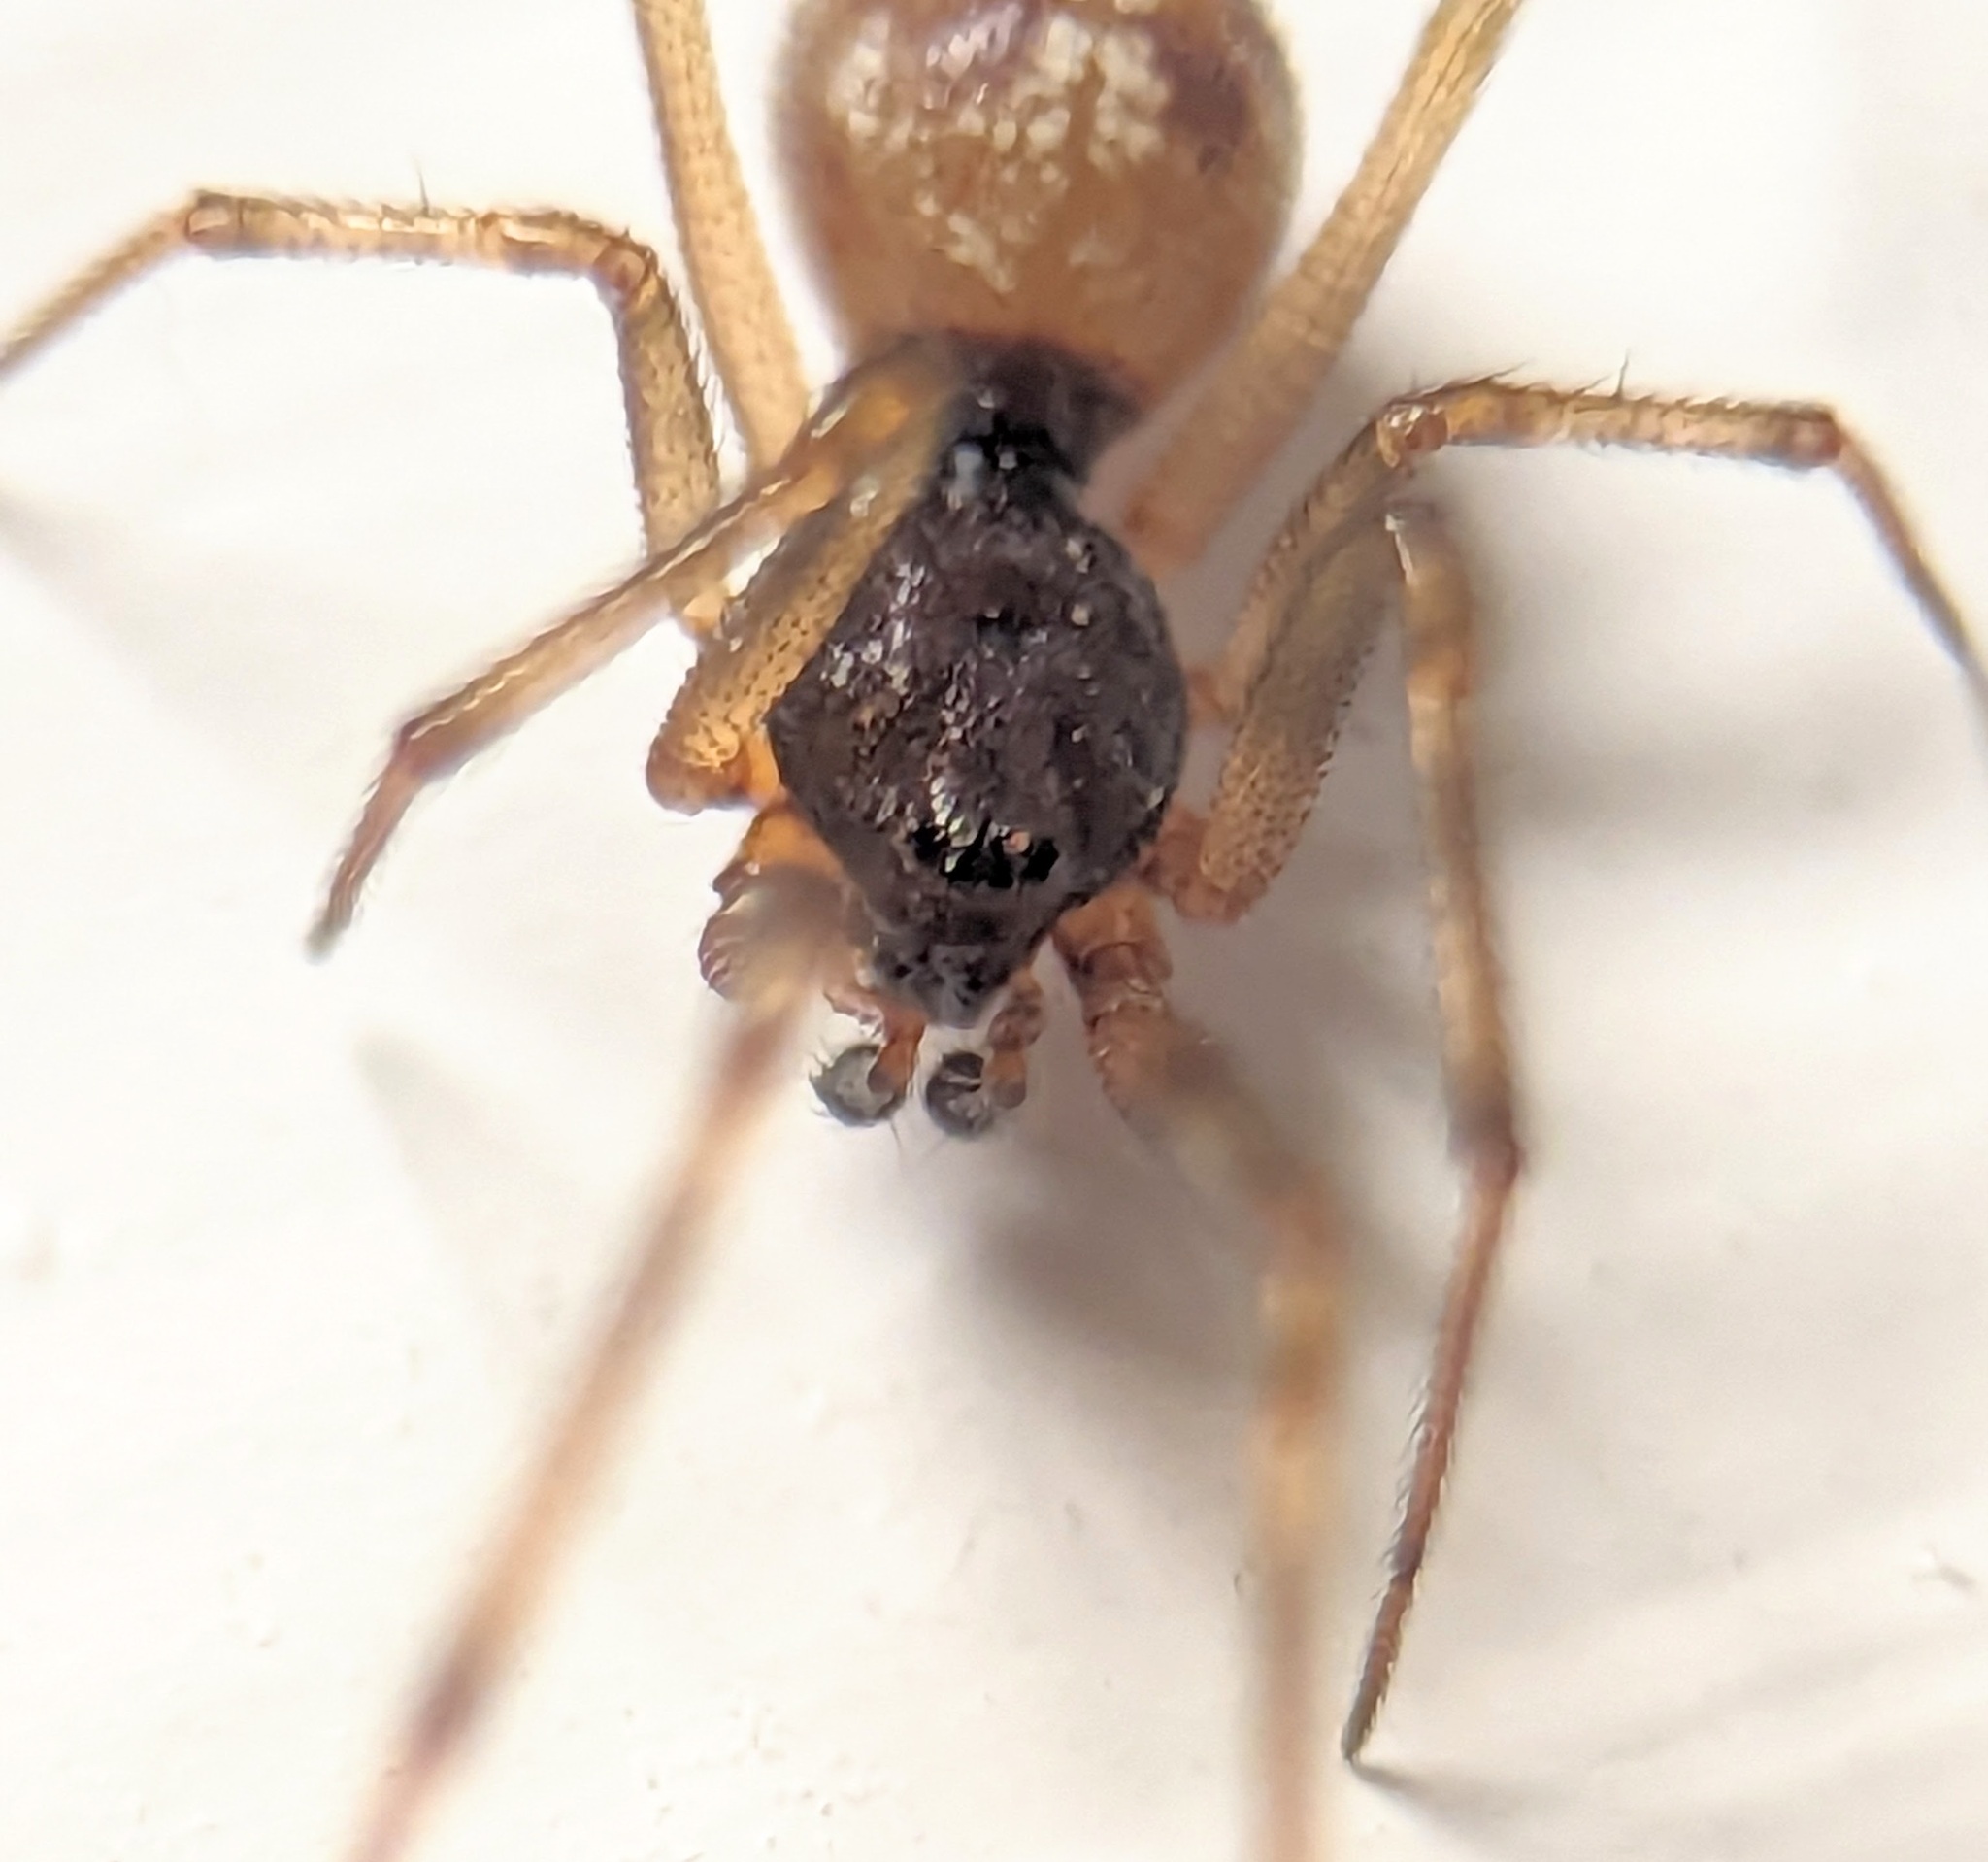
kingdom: Animalia
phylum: Arthropoda
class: Arachnida
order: Araneae
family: Theridiidae
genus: Steatoda
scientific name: Steatoda triangulosa
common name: Triangulate bud spider
